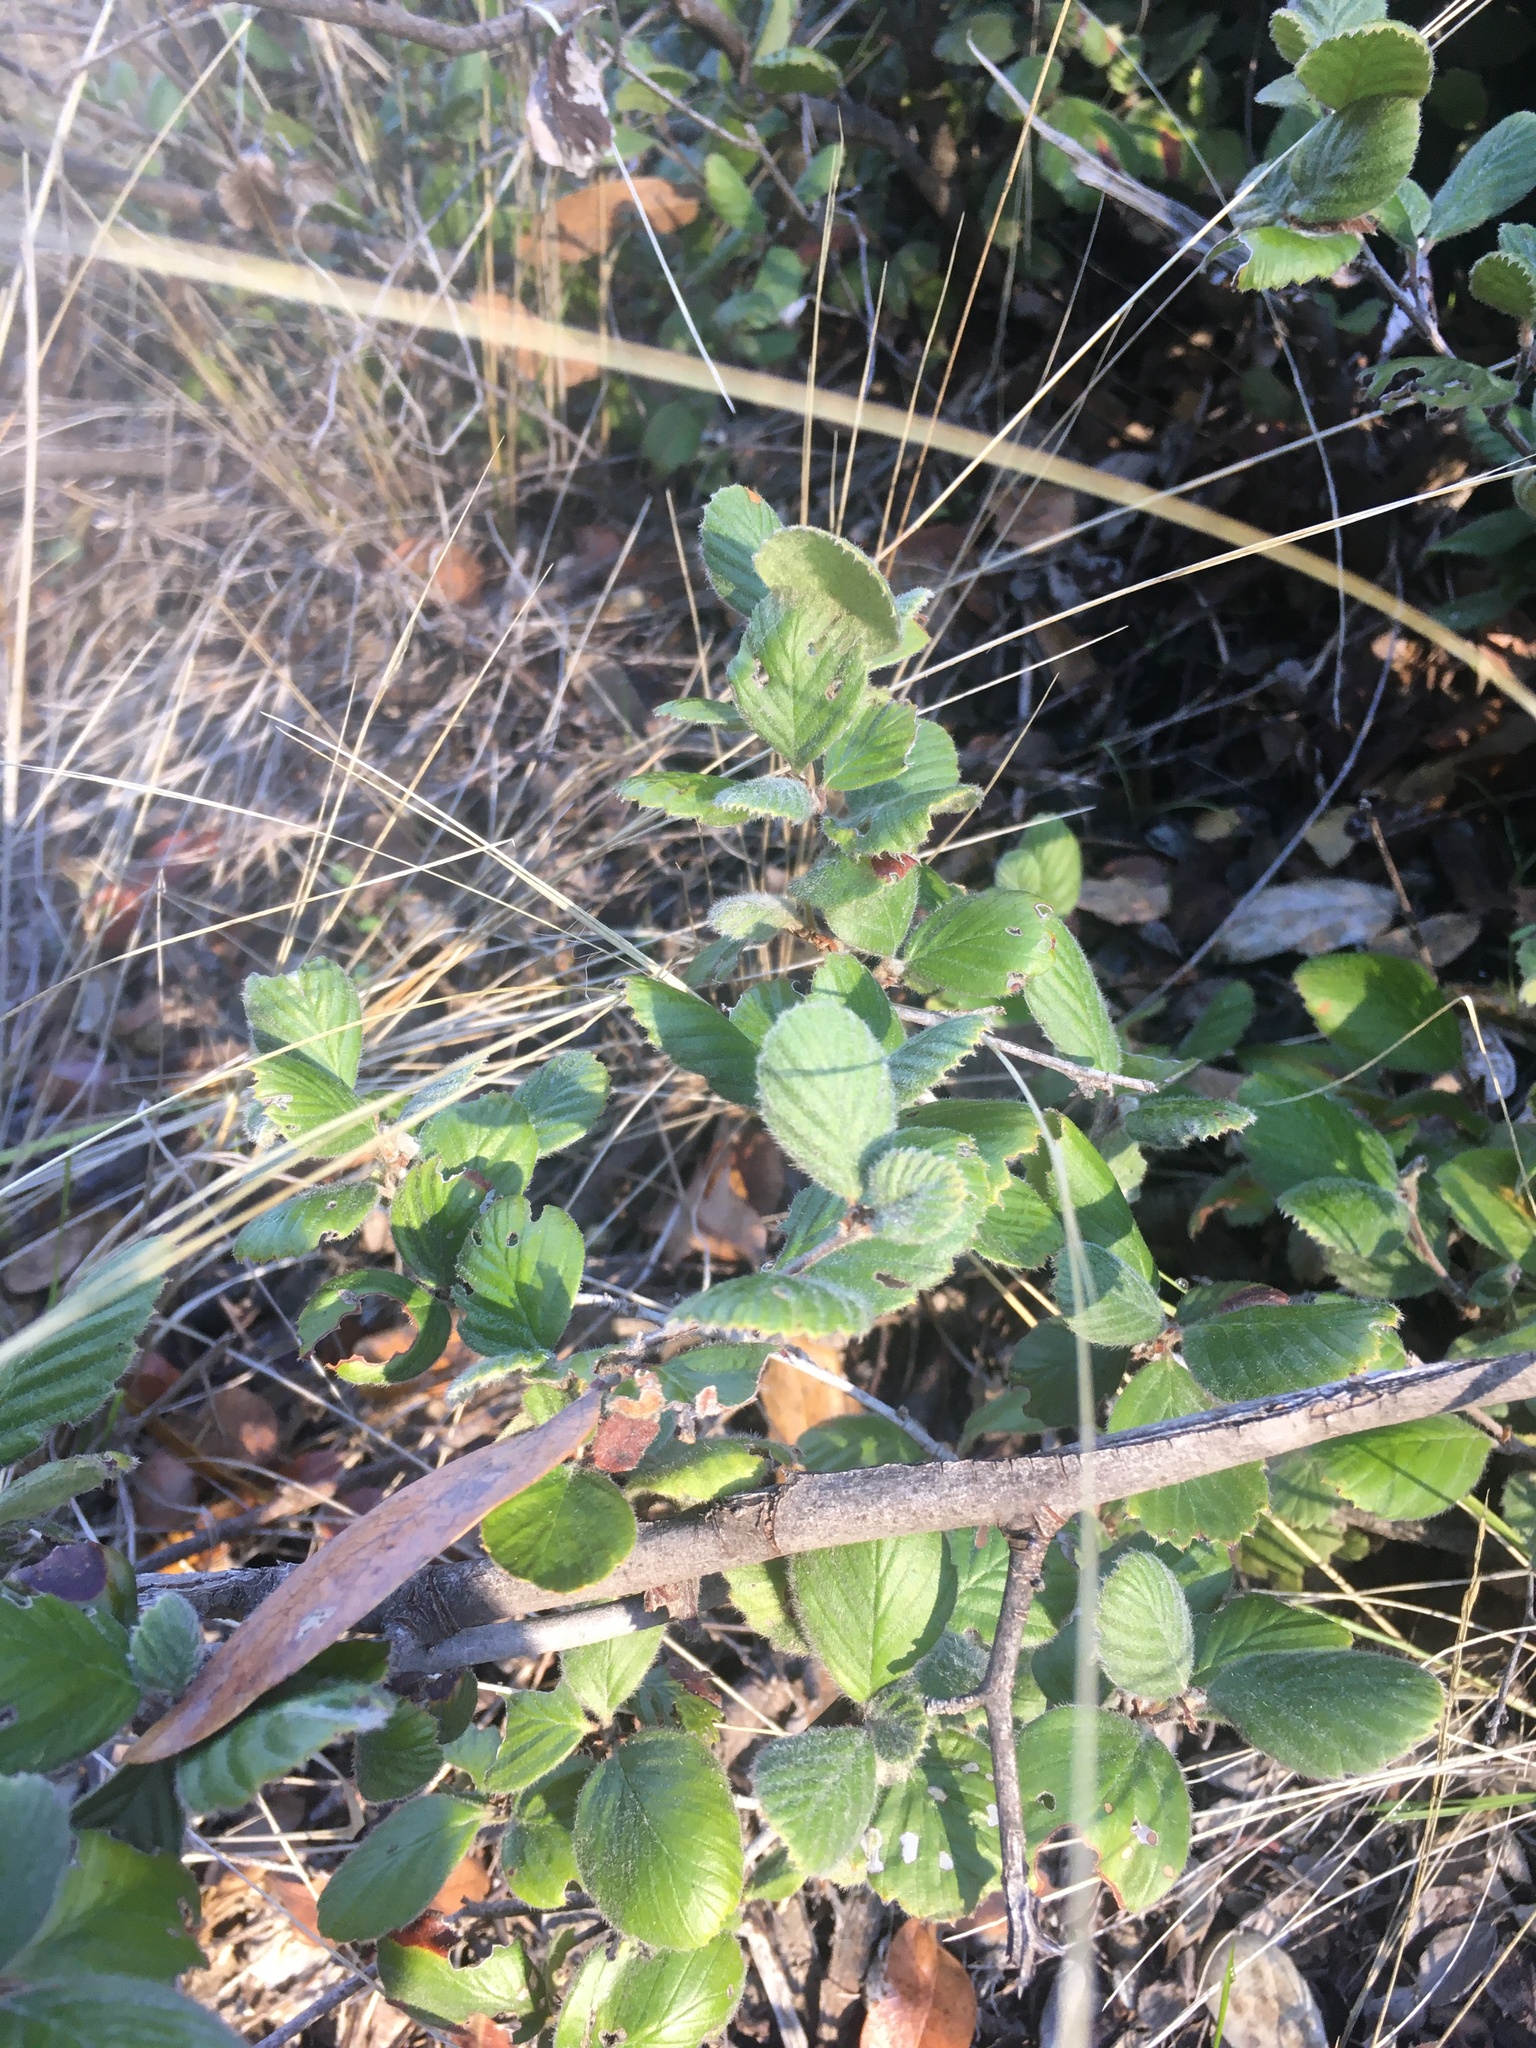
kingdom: Plantae
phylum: Tracheophyta
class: Magnoliopsida
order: Rosales
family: Rosaceae
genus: Cercocarpus
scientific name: Cercocarpus betuloides
